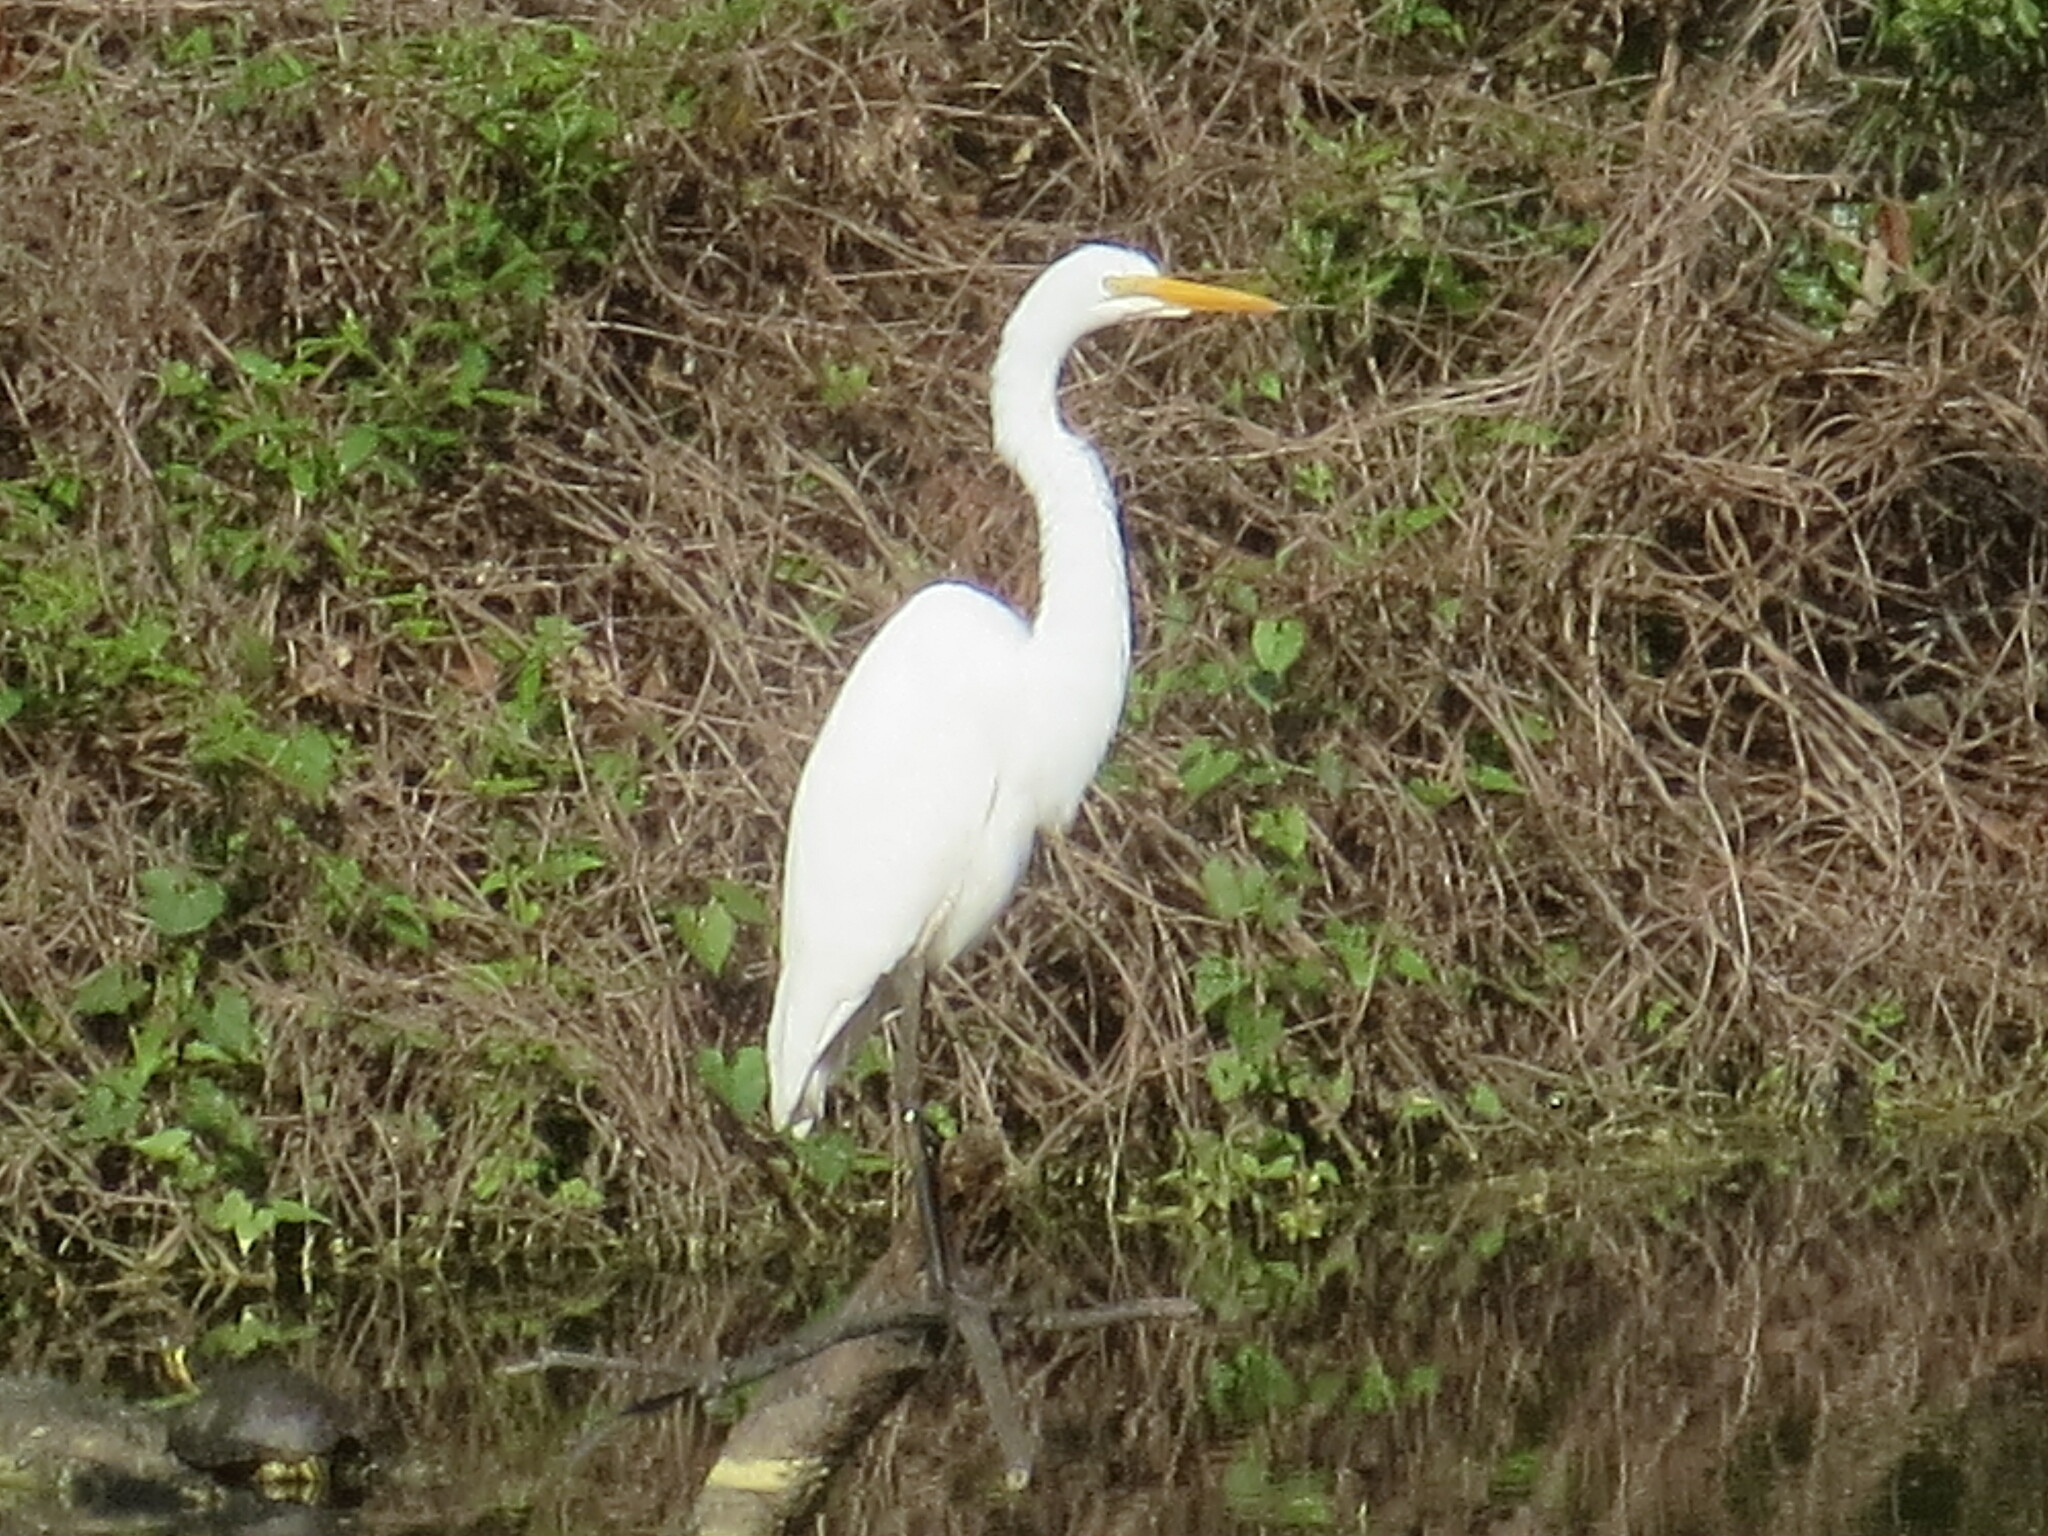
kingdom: Animalia
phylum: Chordata
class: Aves
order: Pelecaniformes
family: Ardeidae
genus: Ardea
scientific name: Ardea alba
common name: Great egret
